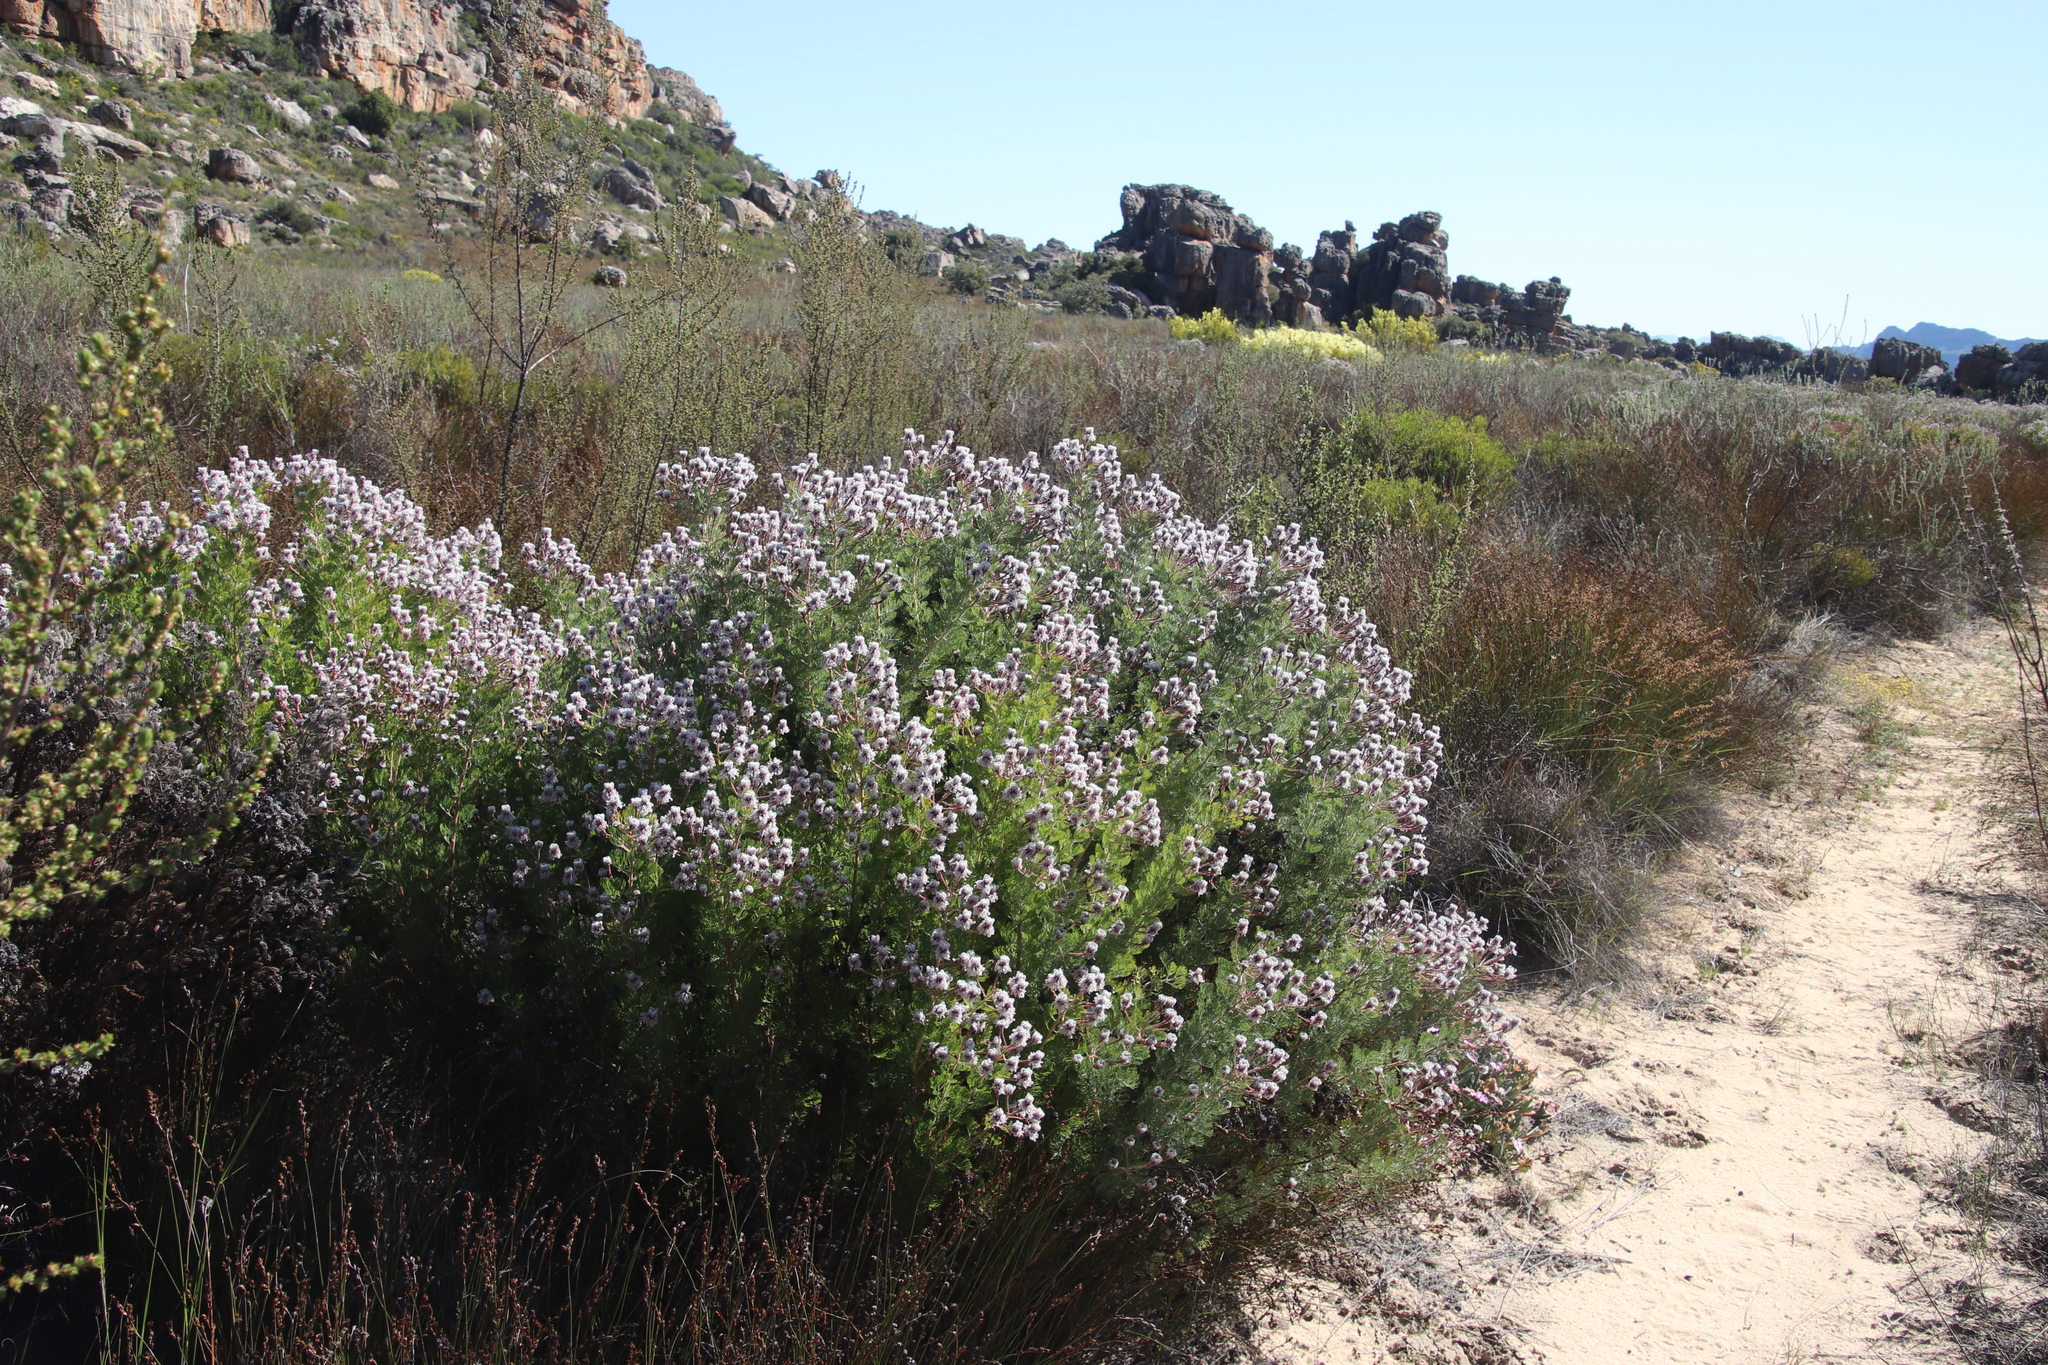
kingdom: Plantae
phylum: Tracheophyta
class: Magnoliopsida
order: Proteales
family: Proteaceae
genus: Serruria
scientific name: Serruria aitonii
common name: Marshmallow spiderhead
